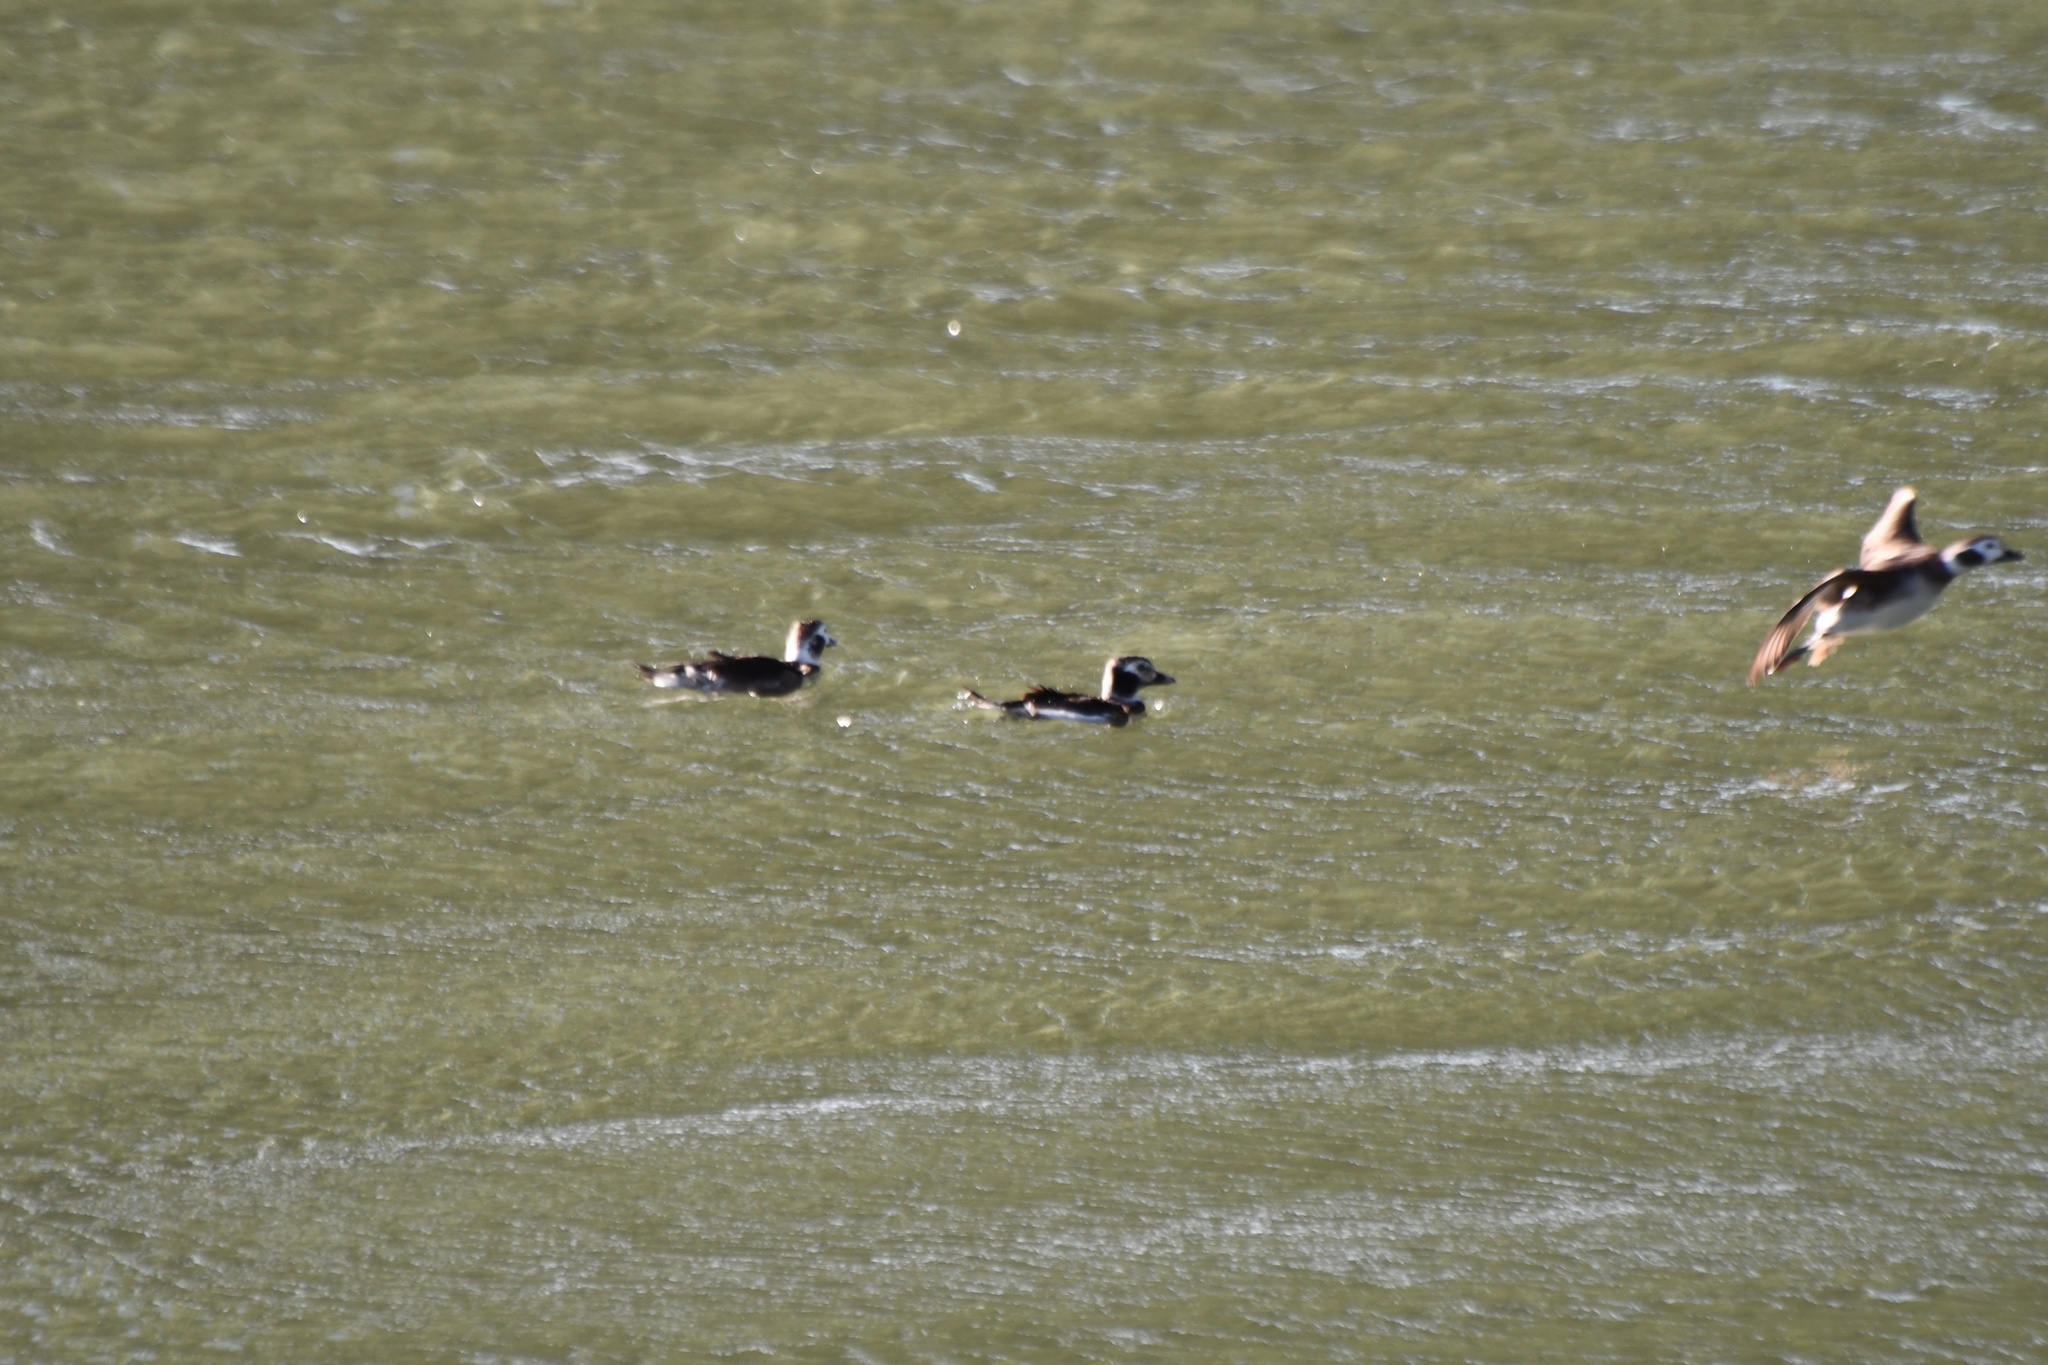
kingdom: Animalia
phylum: Chordata
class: Aves
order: Anseriformes
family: Anatidae
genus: Clangula
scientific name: Clangula hyemalis
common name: Long-tailed duck
